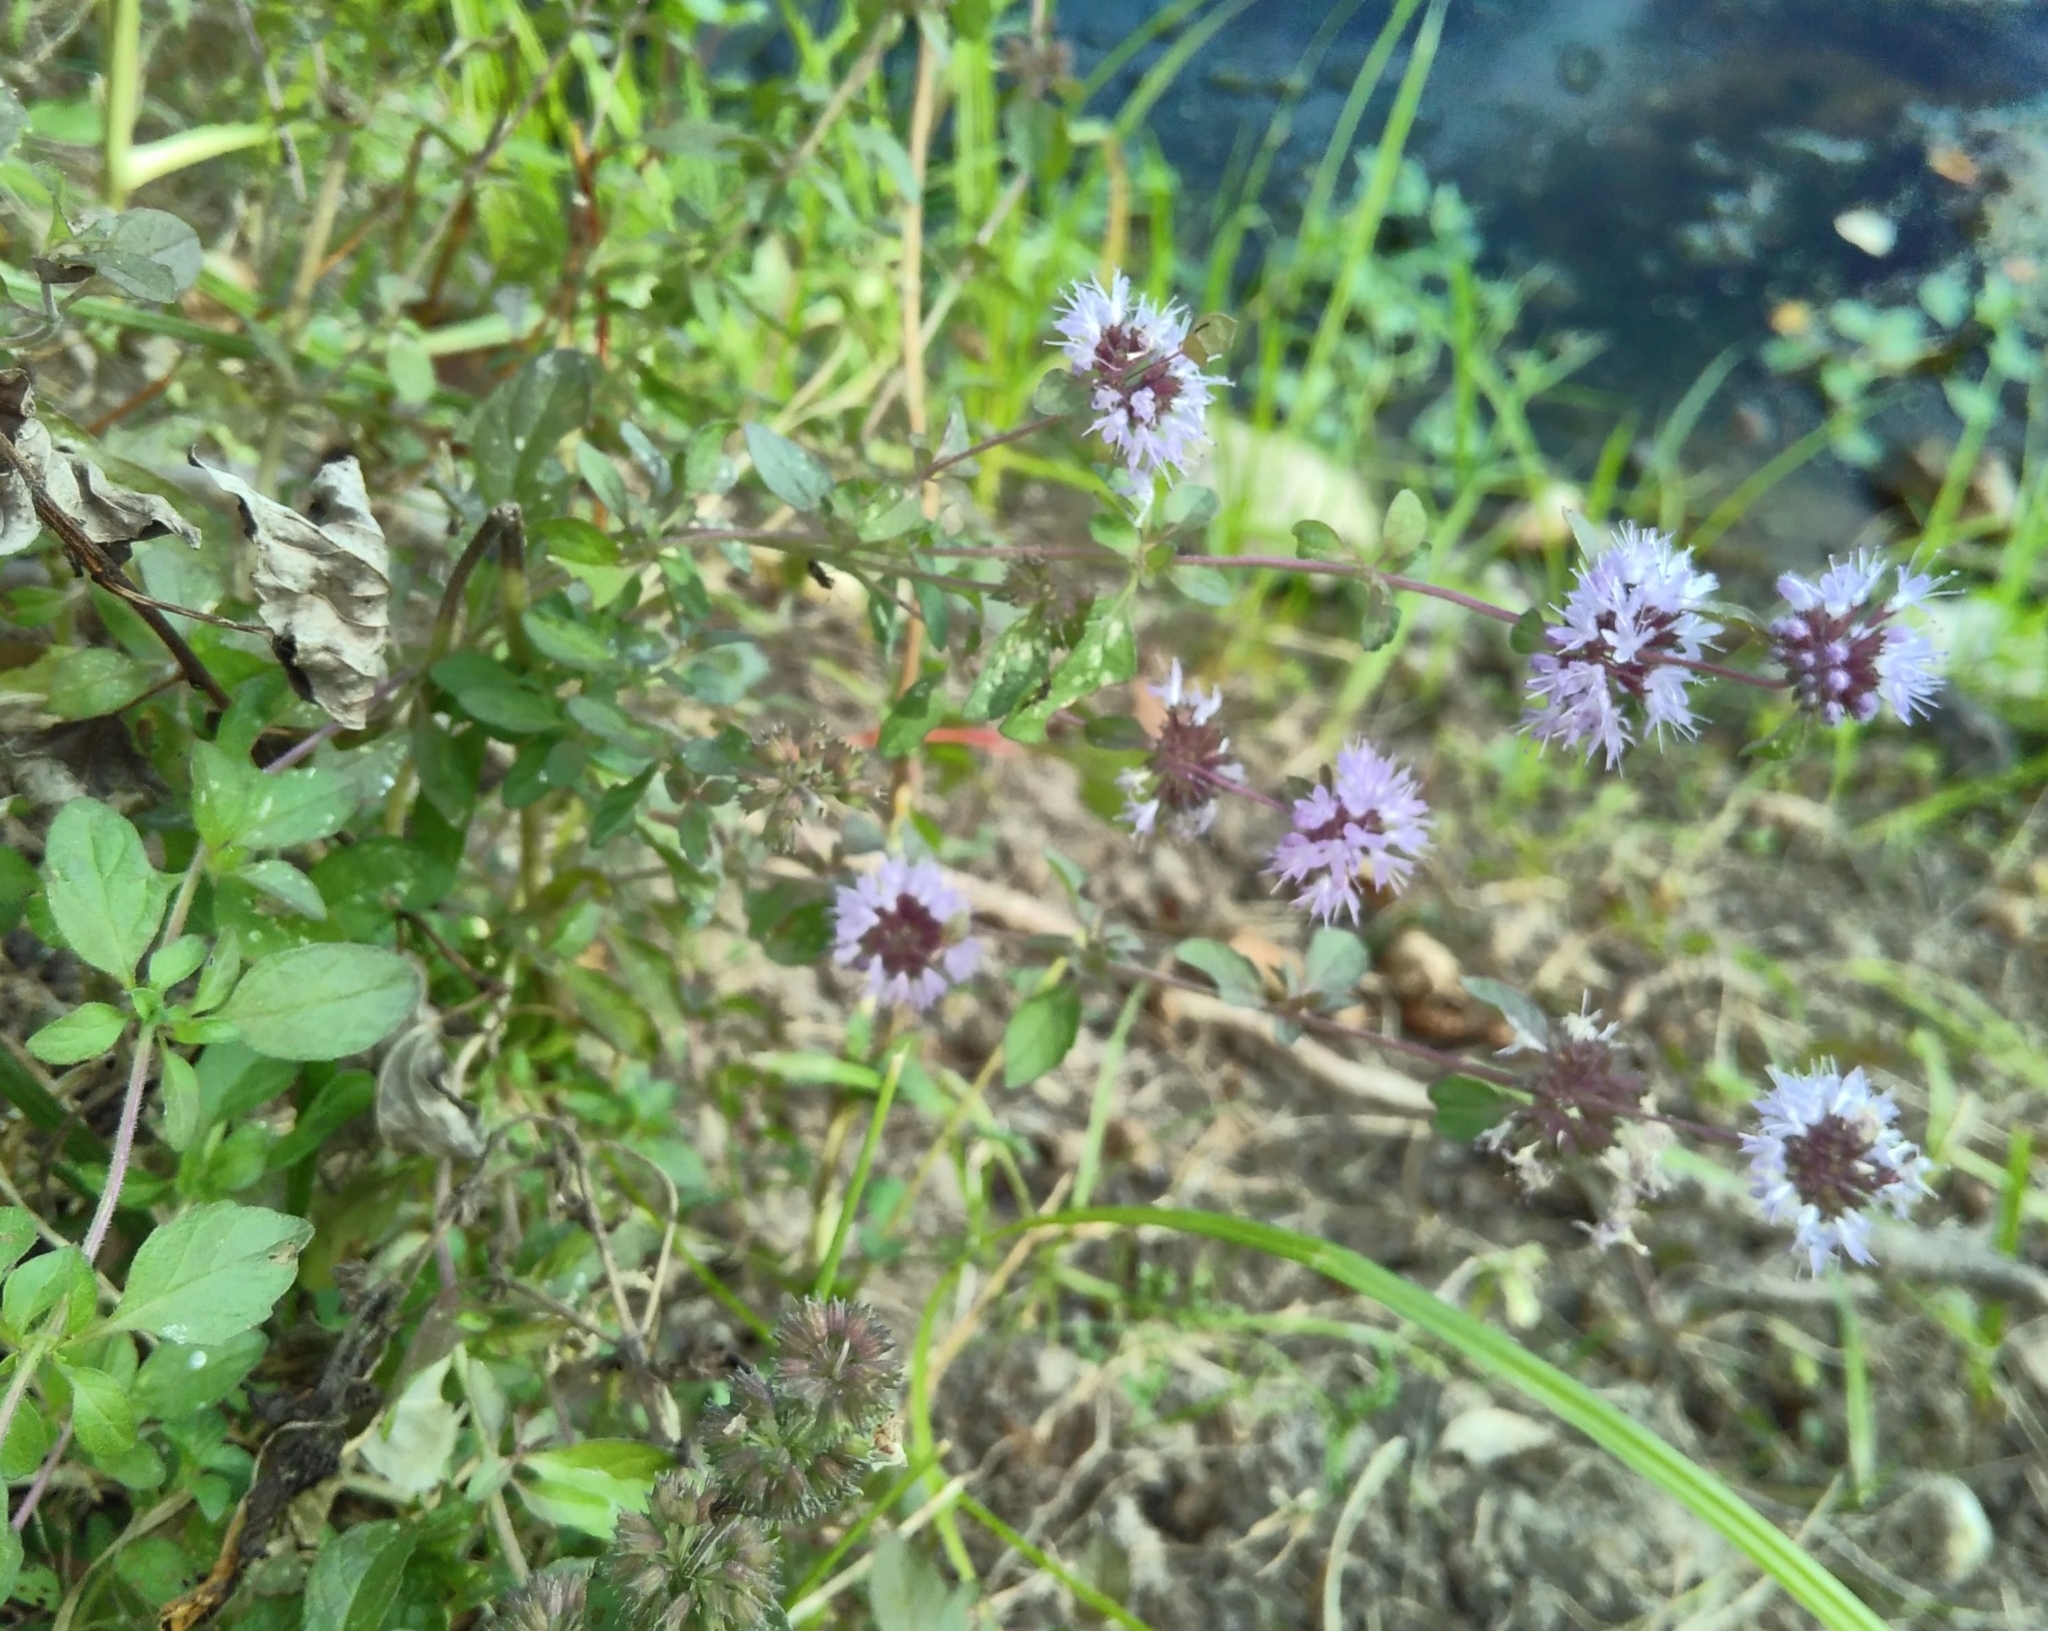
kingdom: Plantae
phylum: Tracheophyta
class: Magnoliopsida
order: Lamiales
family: Lamiaceae
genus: Mentha
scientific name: Mentha pulegium
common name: Pennyroyal
